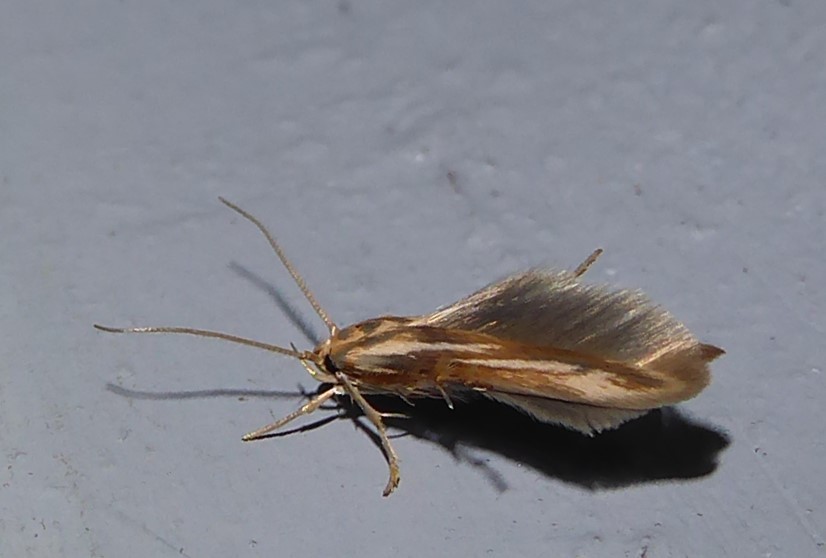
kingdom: Animalia
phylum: Arthropoda
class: Insecta
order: Lepidoptera
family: Stathmopodidae
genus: Stathmopoda
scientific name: Stathmopoda plumbiflua
